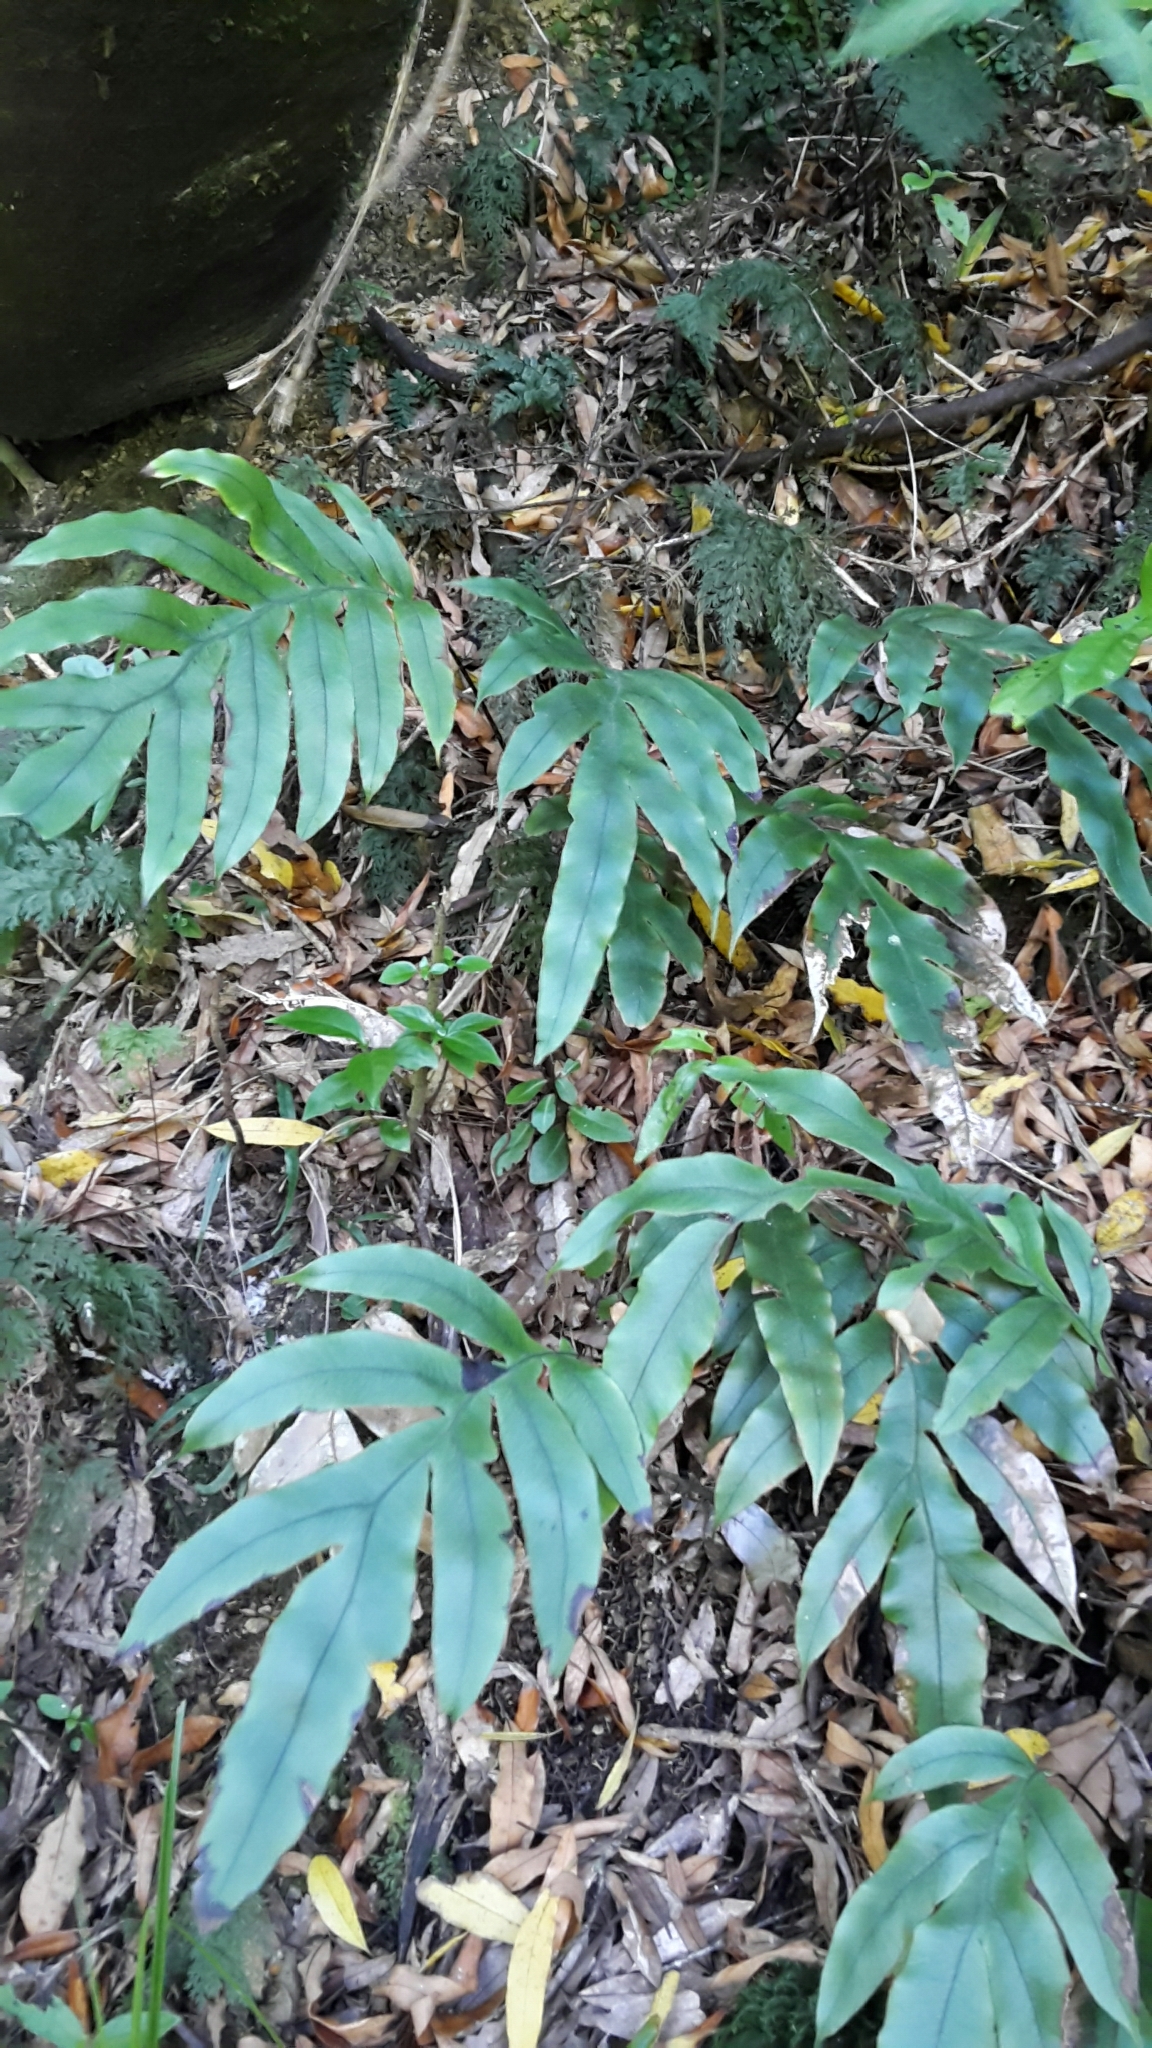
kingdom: Plantae
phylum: Tracheophyta
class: Polypodiopsida
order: Polypodiales
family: Blechnaceae
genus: Austroblechnum
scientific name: Austroblechnum colensoi
